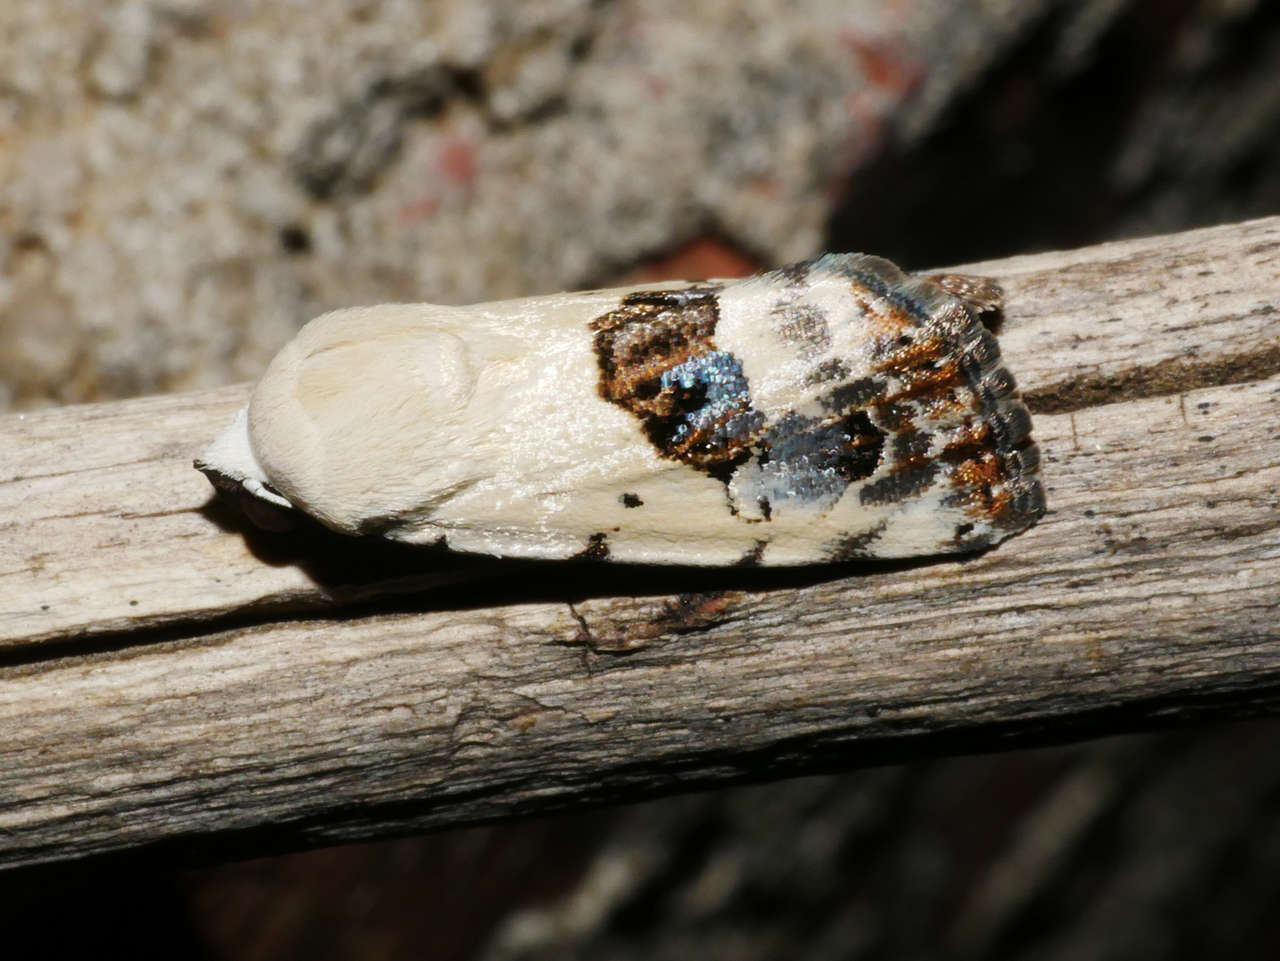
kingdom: Animalia
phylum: Arthropoda
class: Insecta
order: Lepidoptera
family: Nolidae
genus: Armactica
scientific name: Armactica conchidia
